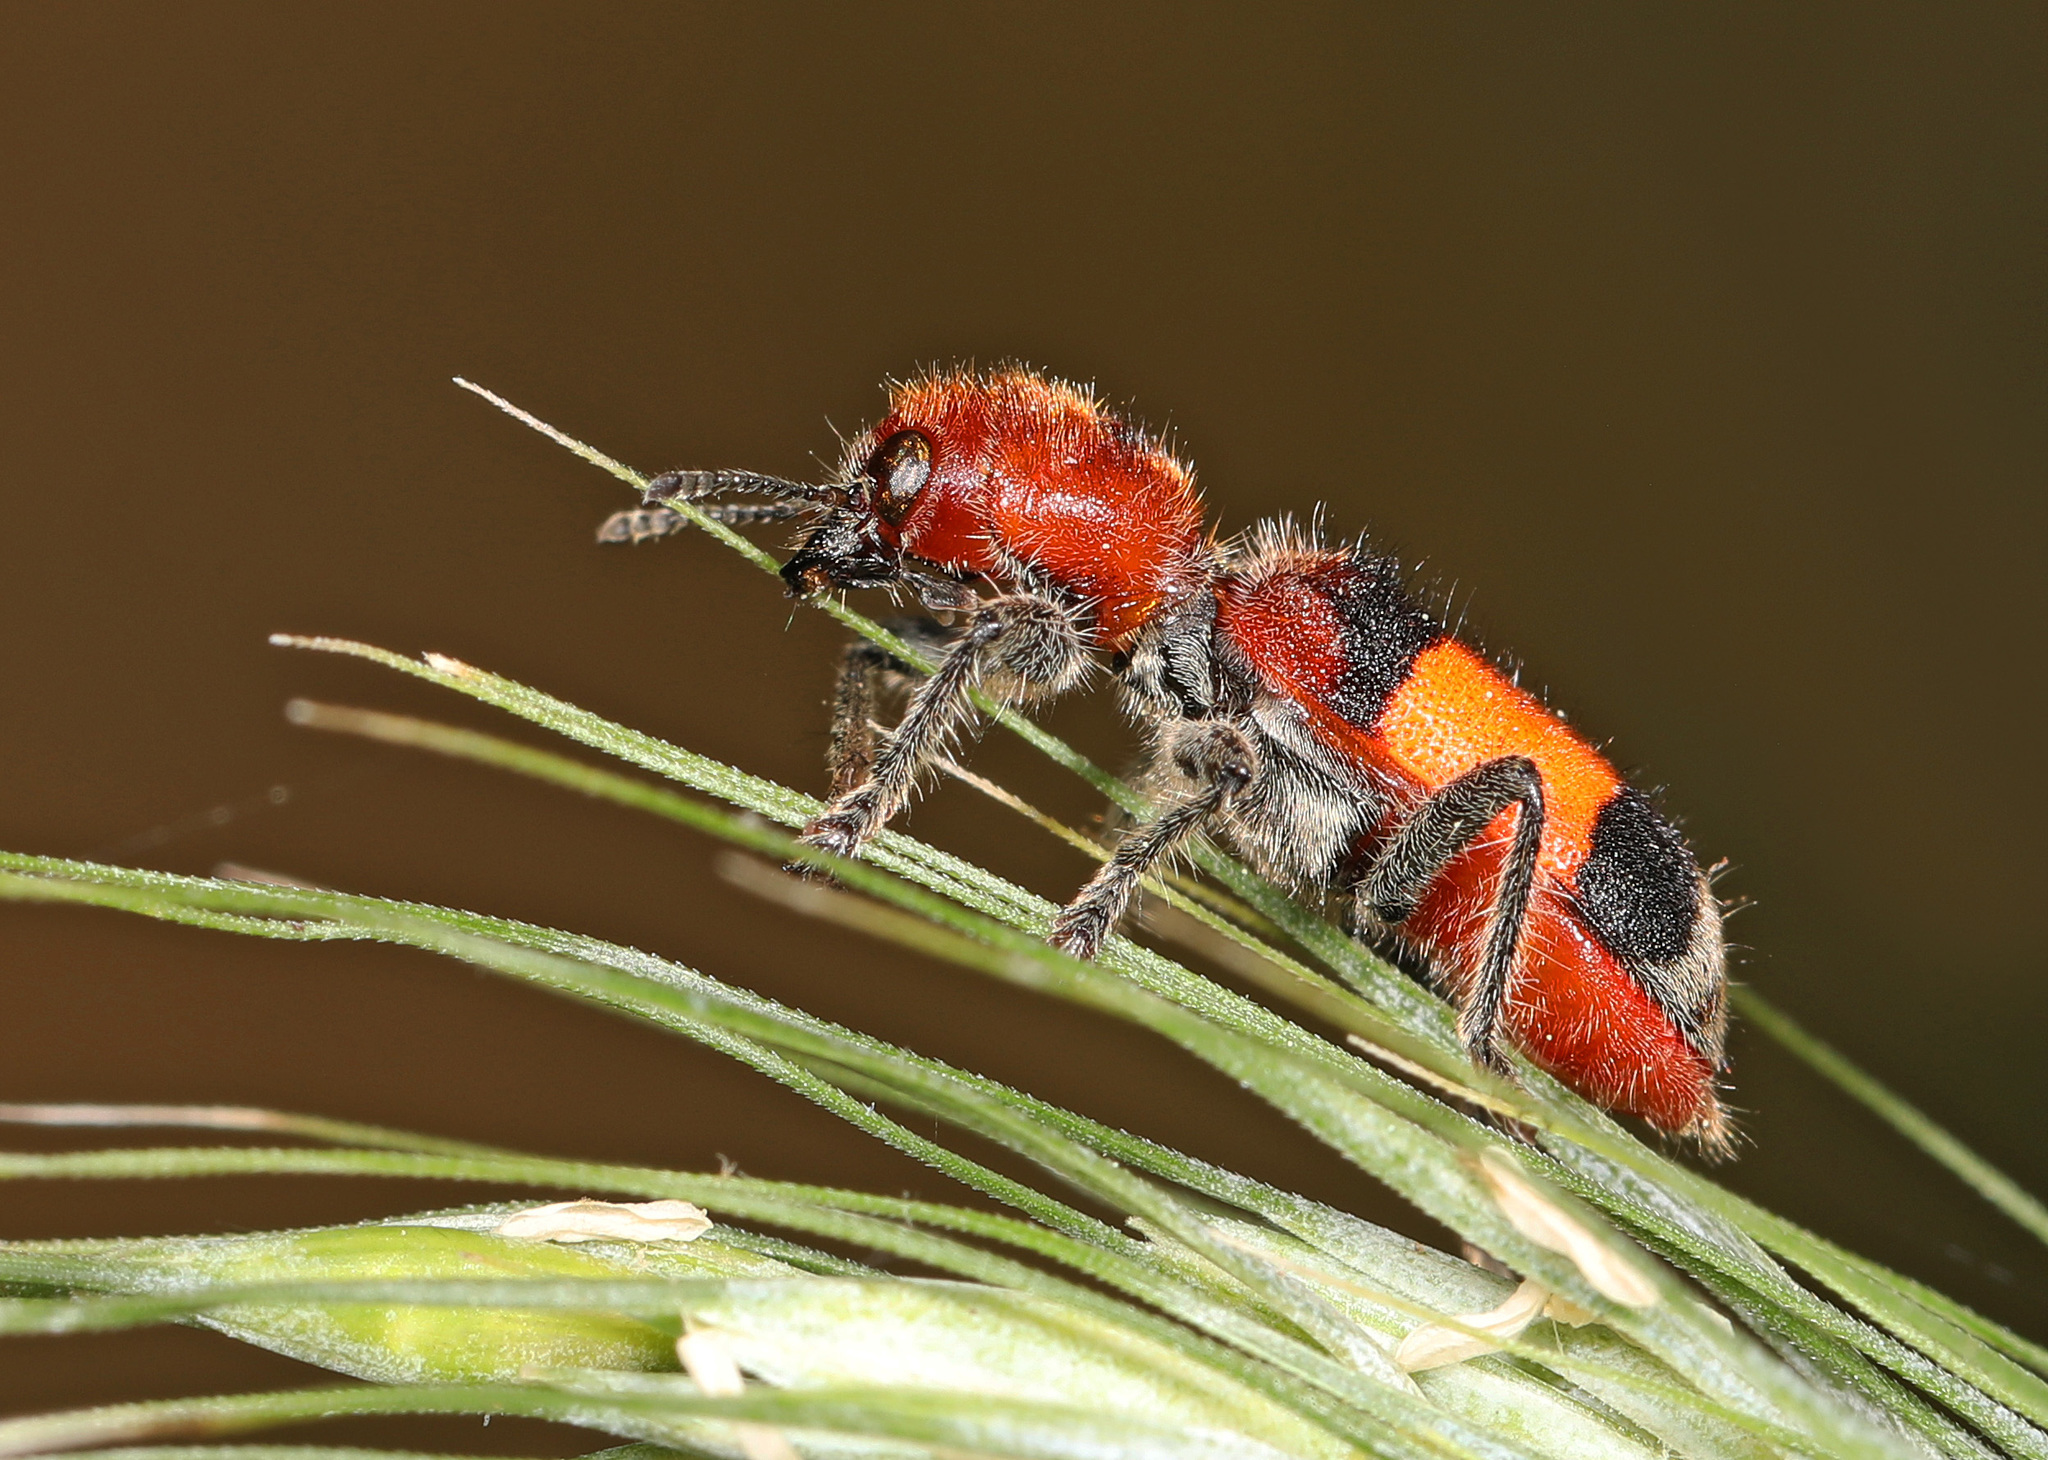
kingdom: Animalia
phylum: Arthropoda
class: Insecta
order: Coleoptera
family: Cleridae
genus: Enoclerus
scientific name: Enoclerus ichneumoneus
